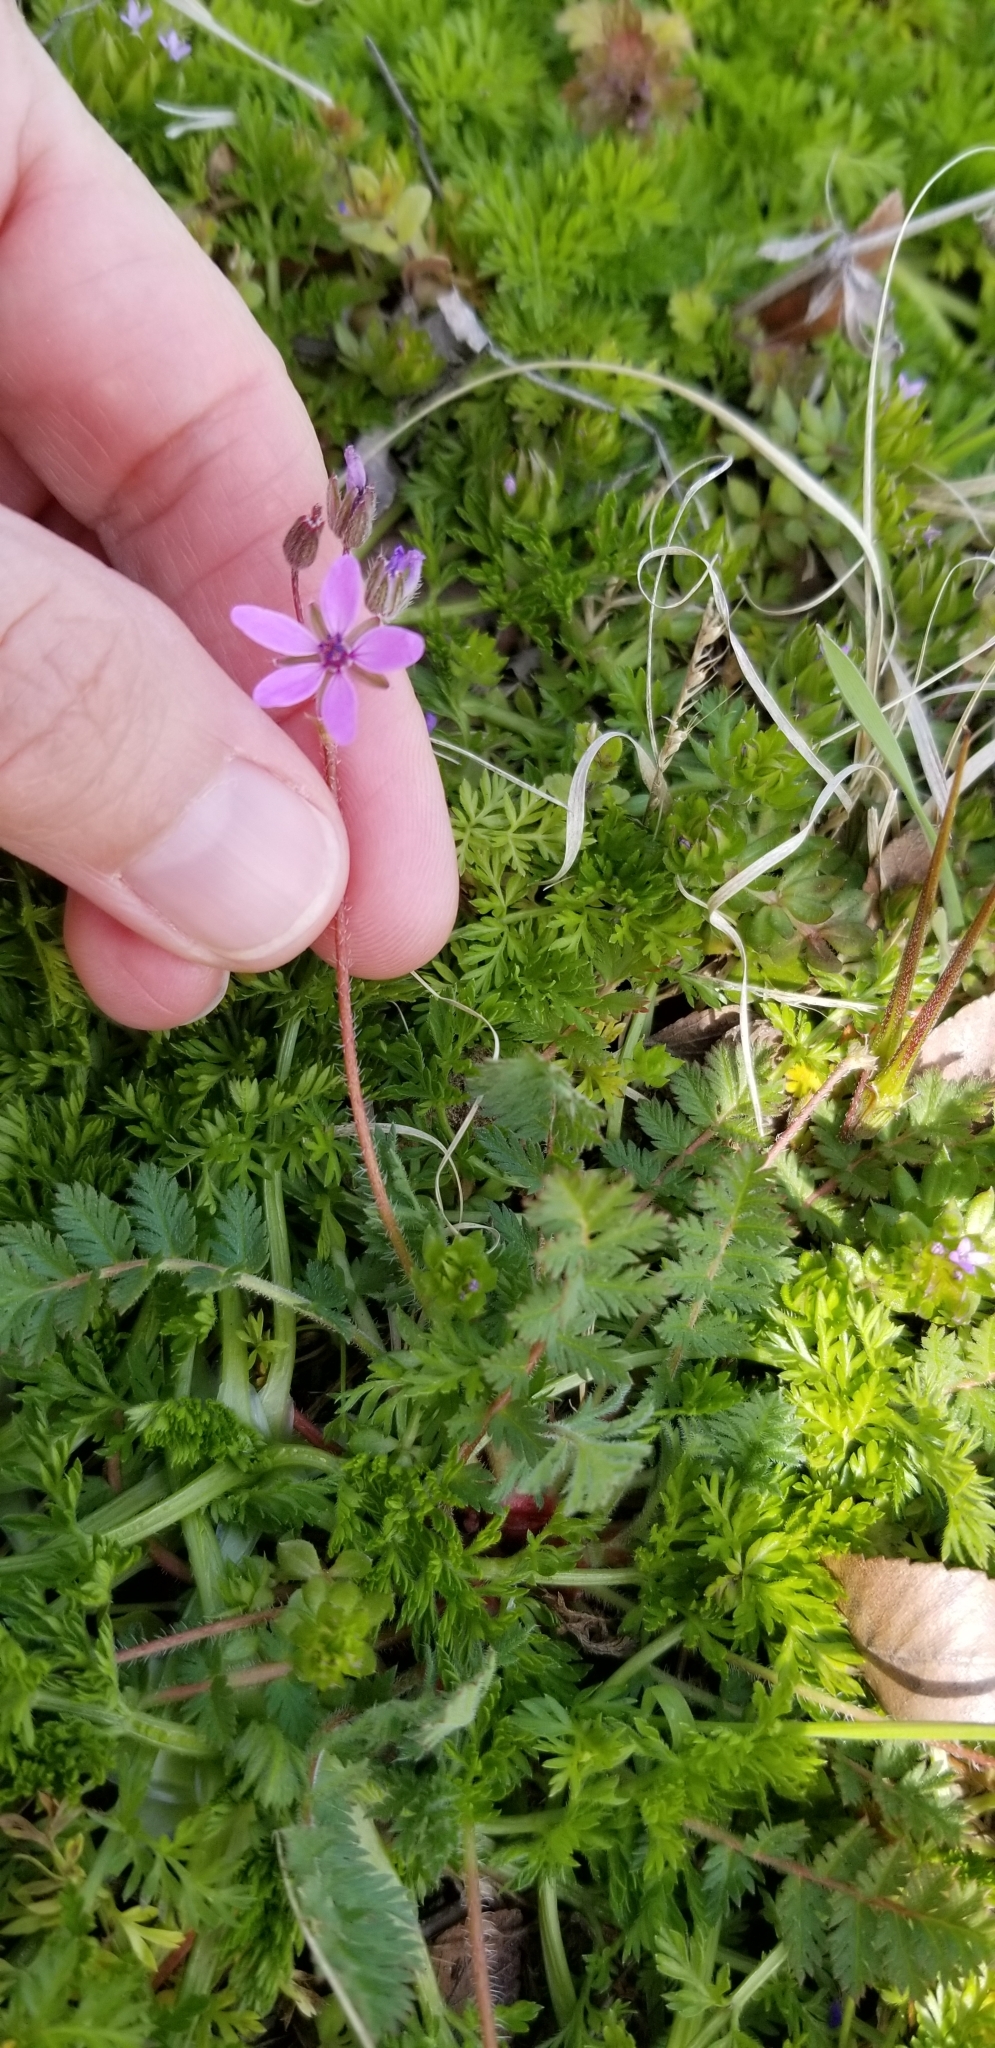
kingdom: Plantae
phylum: Tracheophyta
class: Magnoliopsida
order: Geraniales
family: Geraniaceae
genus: Erodium
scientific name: Erodium cicutarium
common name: Common stork's-bill
